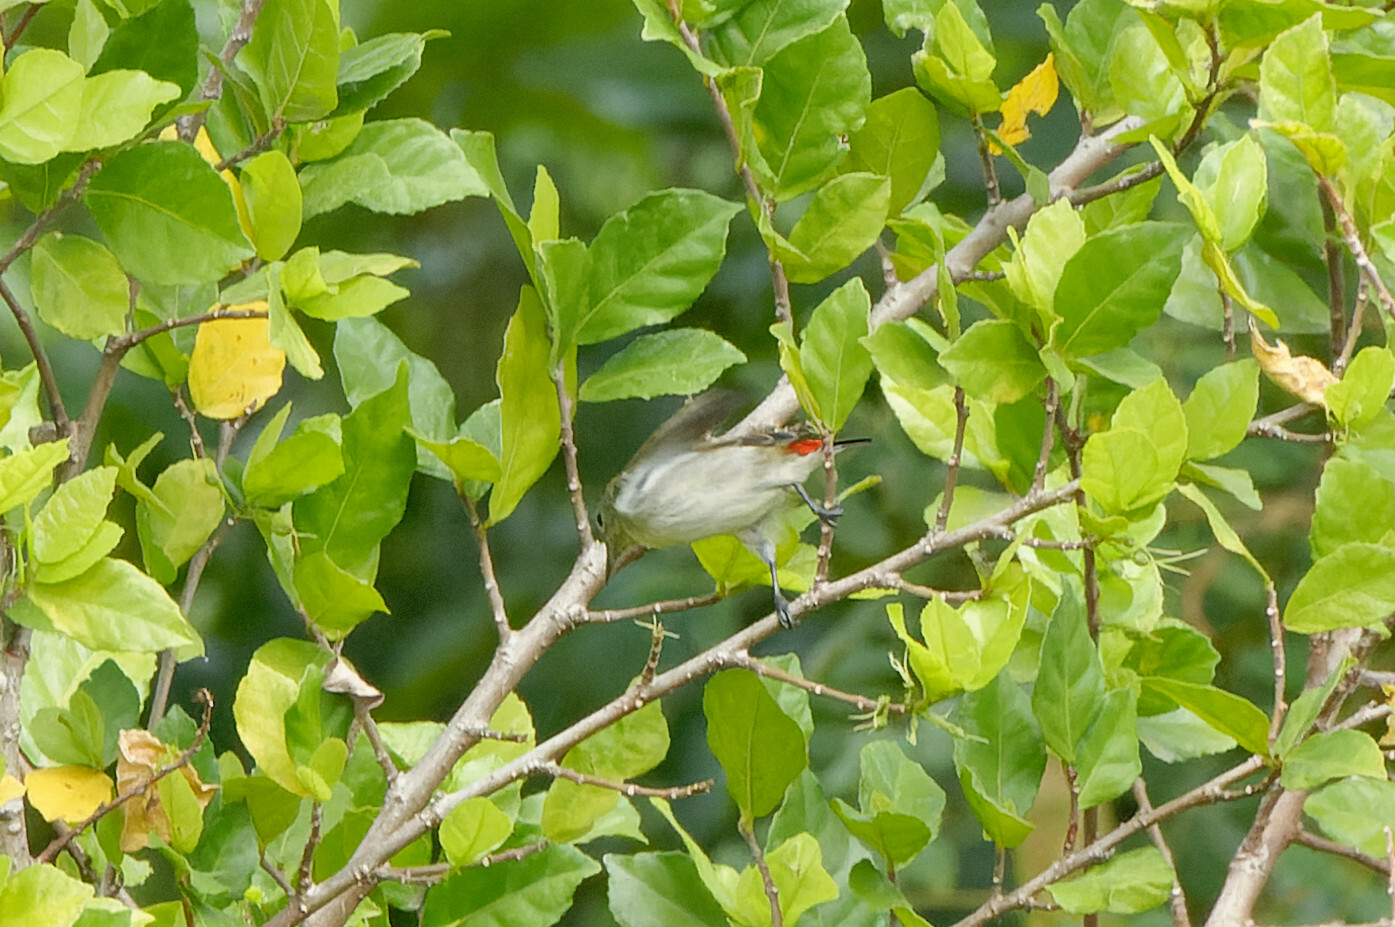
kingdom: Animalia
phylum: Chordata
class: Aves
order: Passeriformes
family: Dicaeidae
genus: Dicaeum
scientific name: Dicaeum cruentatum
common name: Scarlet-backed flowerpecker
